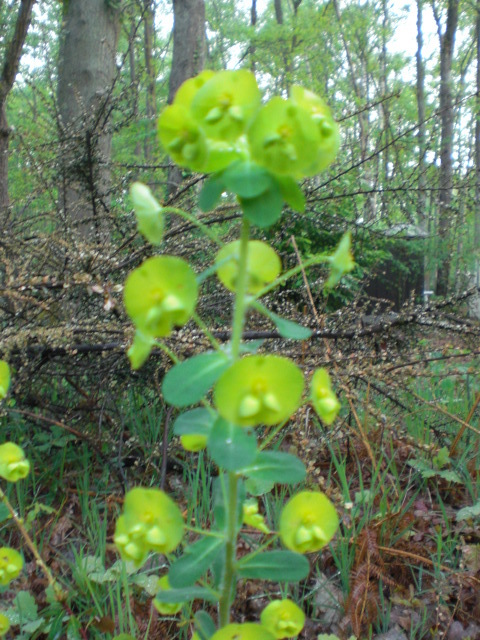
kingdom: Plantae
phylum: Tracheophyta
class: Magnoliopsida
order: Malpighiales
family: Euphorbiaceae
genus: Euphorbia
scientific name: Euphorbia amygdaloides
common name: Wood spurge
